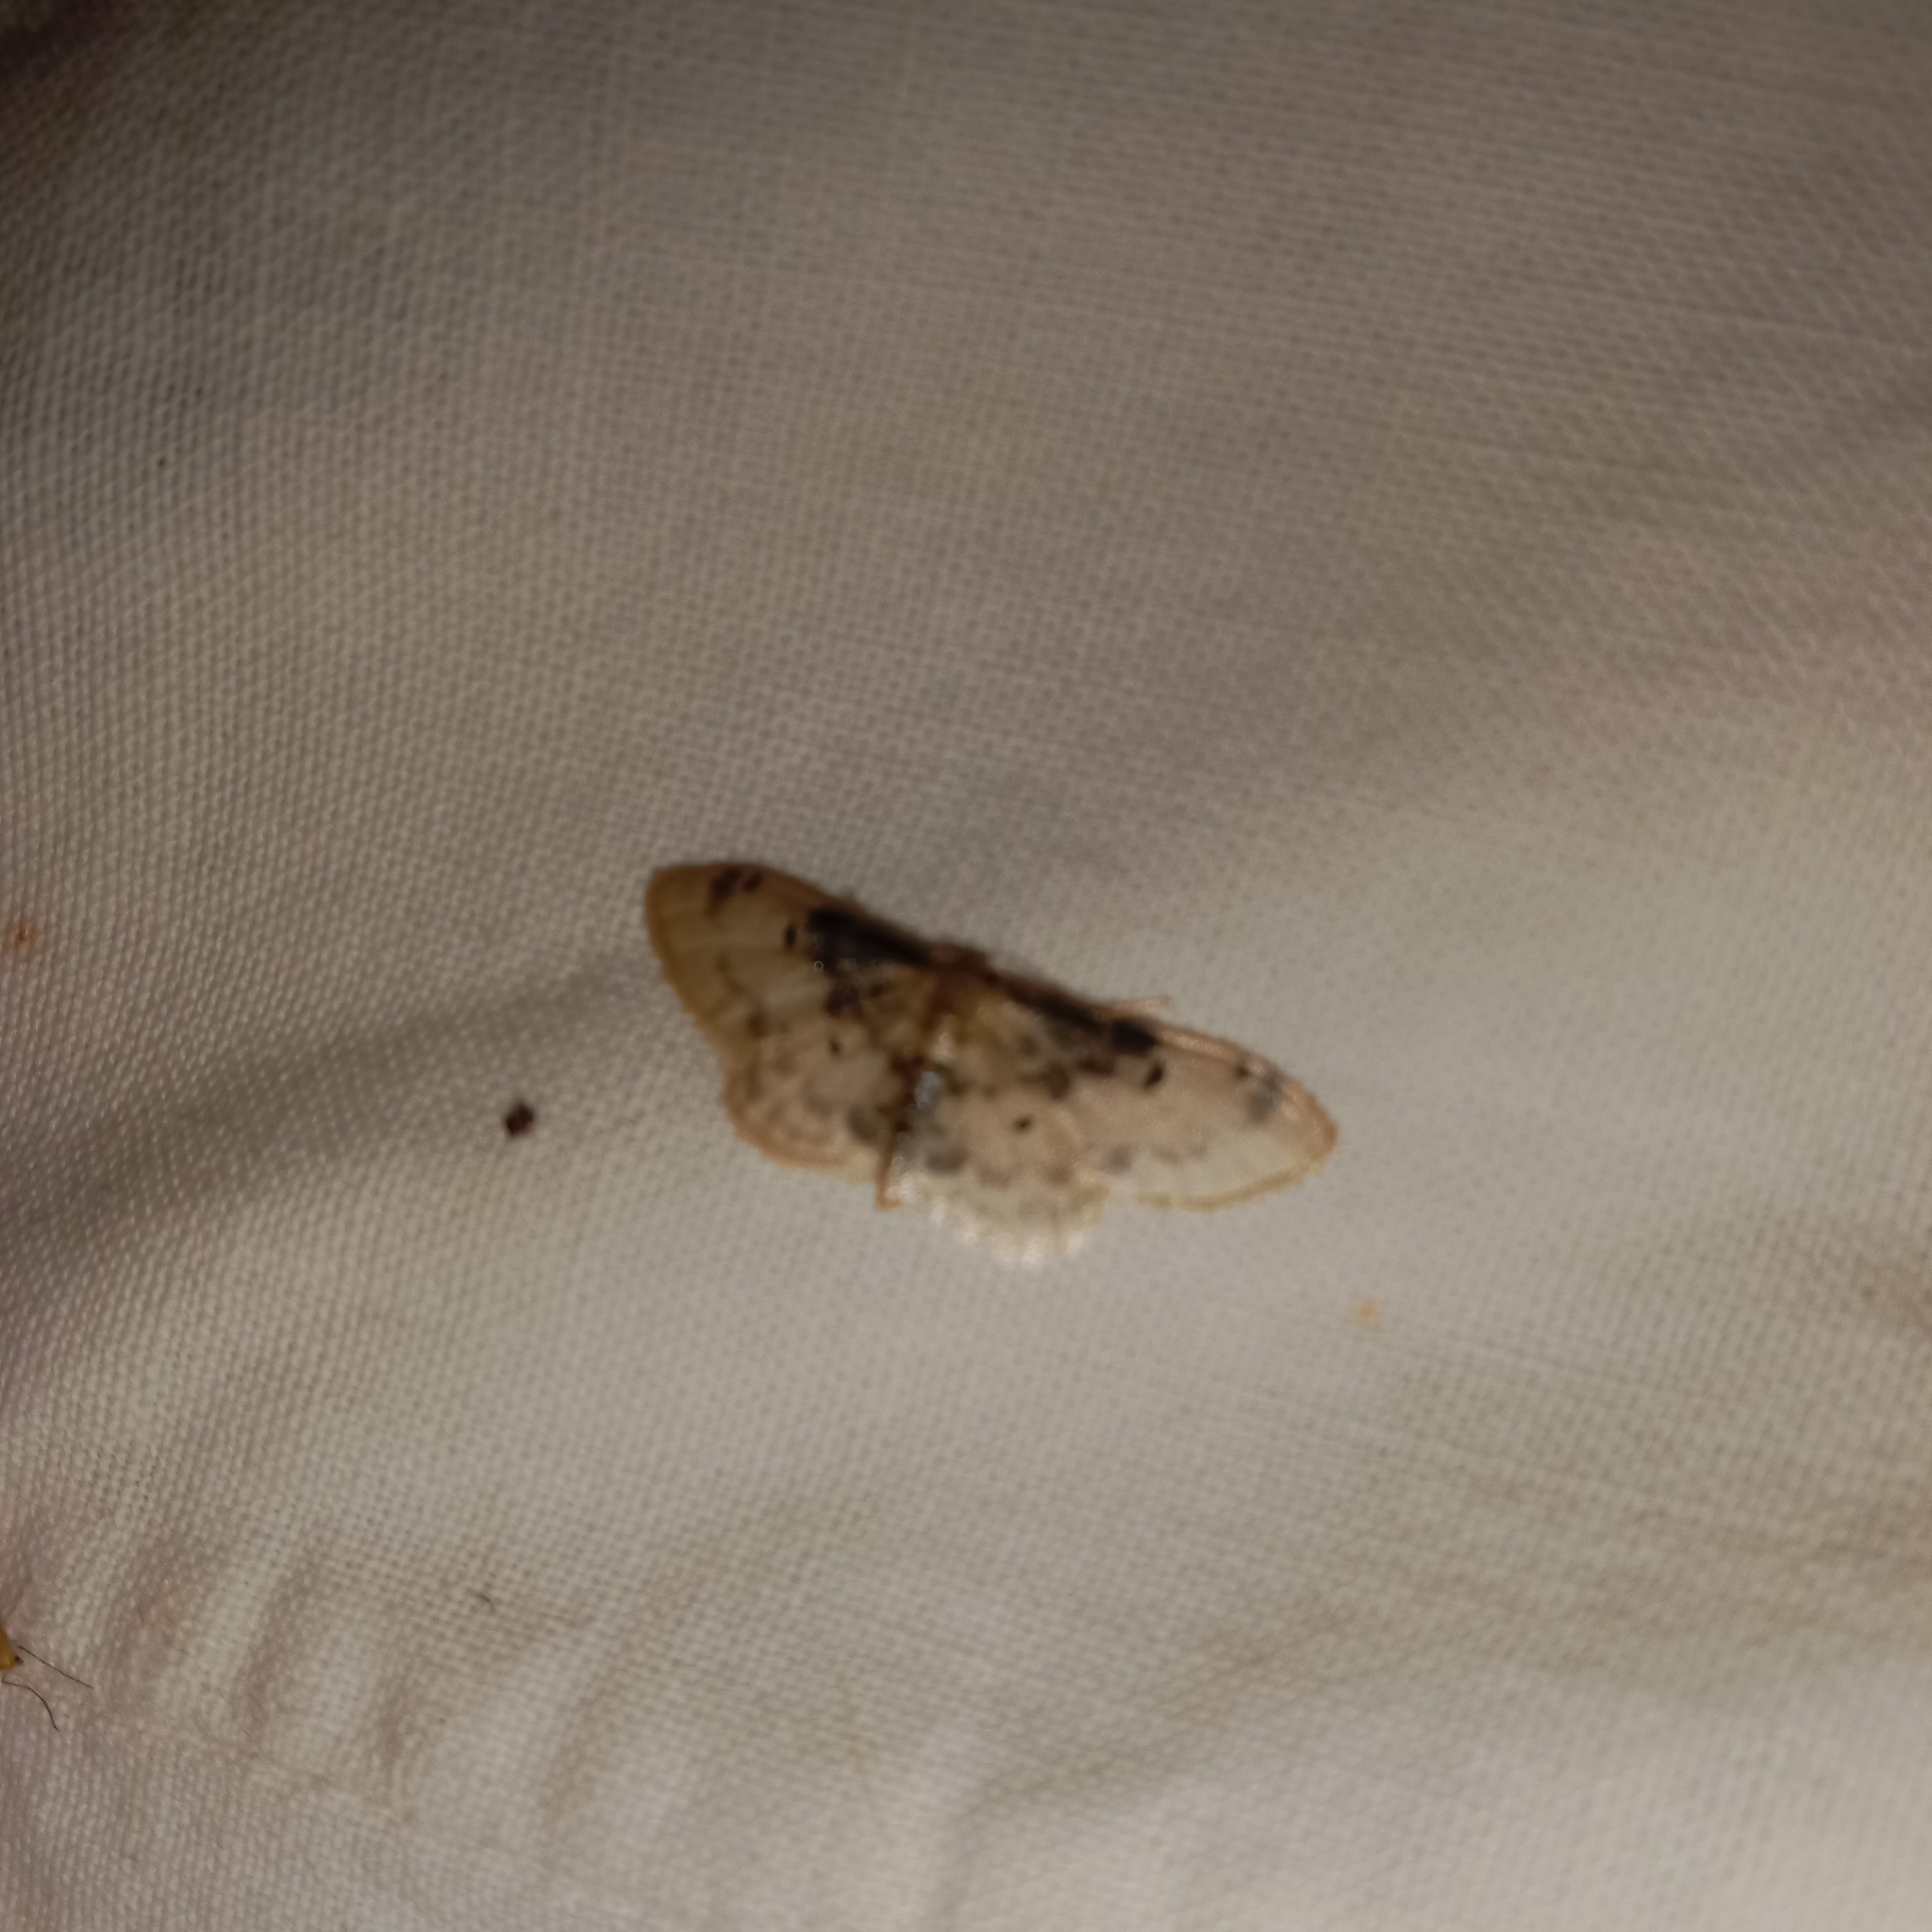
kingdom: Animalia
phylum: Arthropoda
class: Insecta
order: Lepidoptera
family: Geometridae
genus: Idaea
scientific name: Idaea filicata
